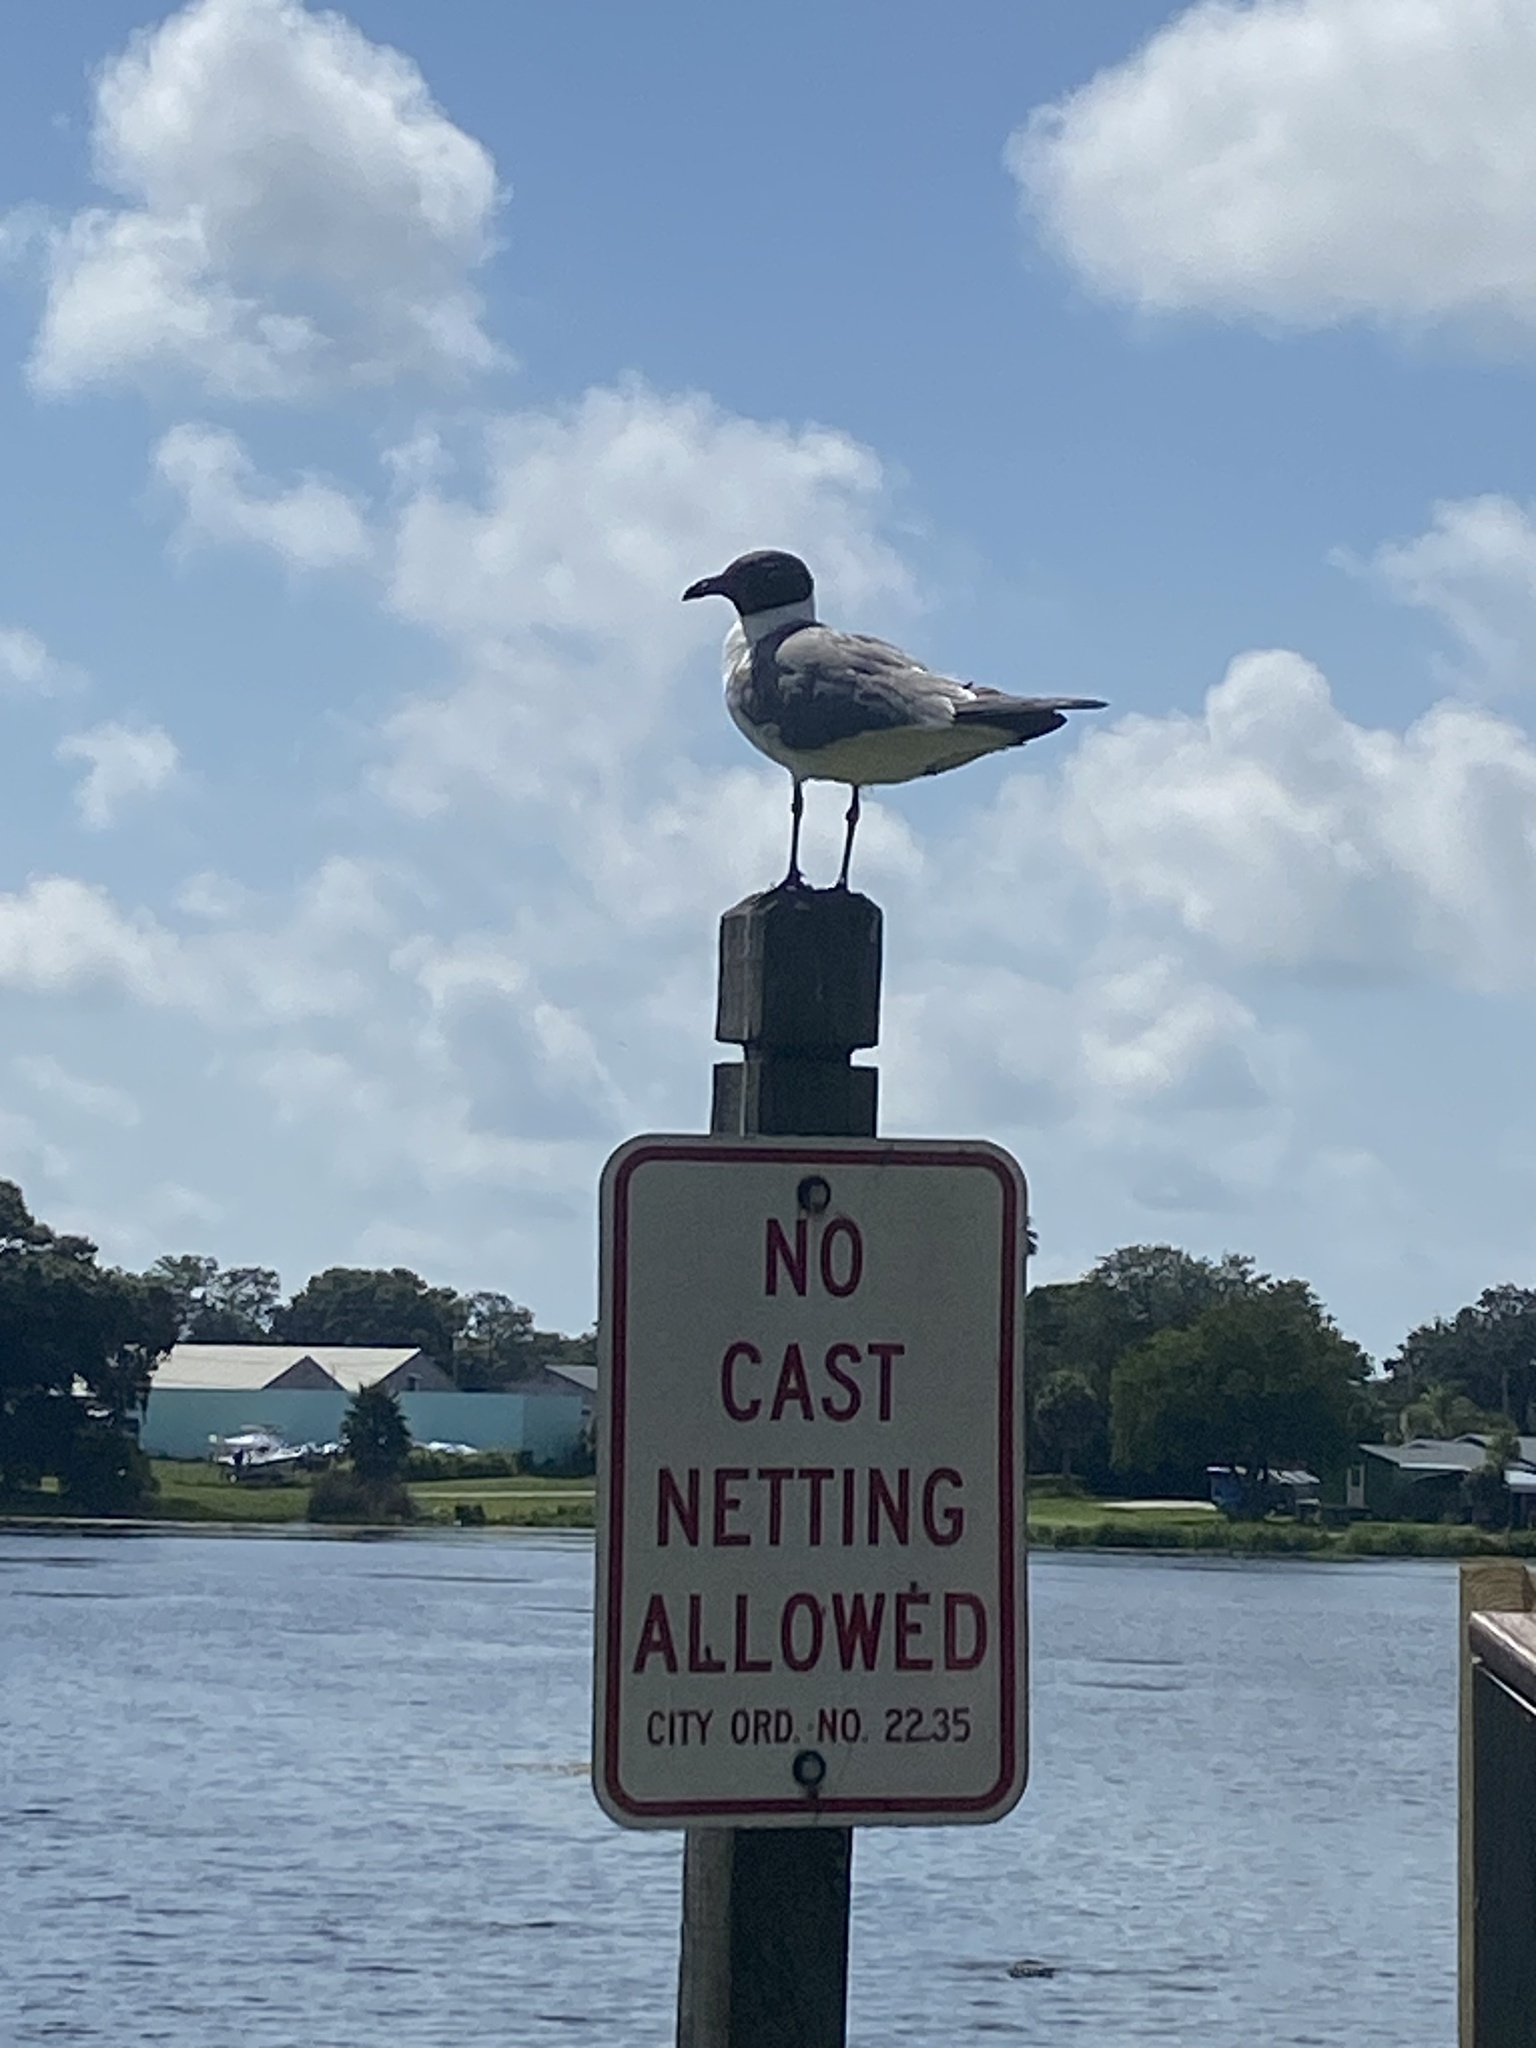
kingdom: Animalia
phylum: Chordata
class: Aves
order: Charadriiformes
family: Laridae
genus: Leucophaeus
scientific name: Leucophaeus atricilla
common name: Laughing gull
